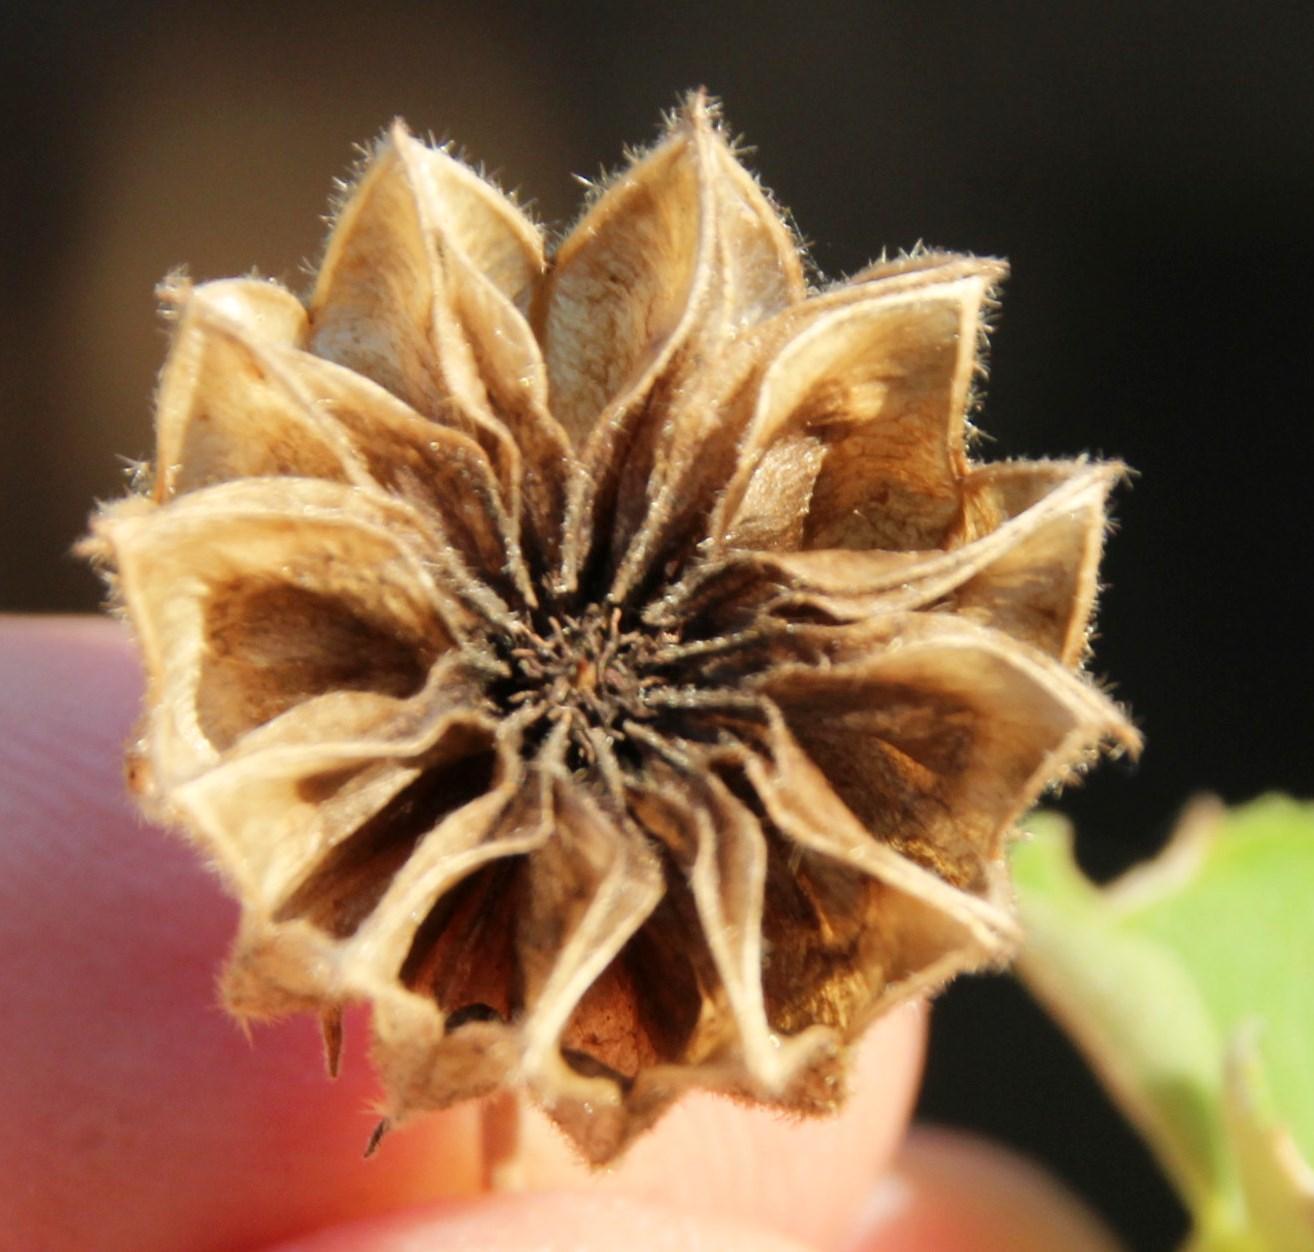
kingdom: Plantae
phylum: Tracheophyta
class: Magnoliopsida
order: Malvales
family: Malvaceae
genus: Abutilon
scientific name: Abutilon sonneratianum
